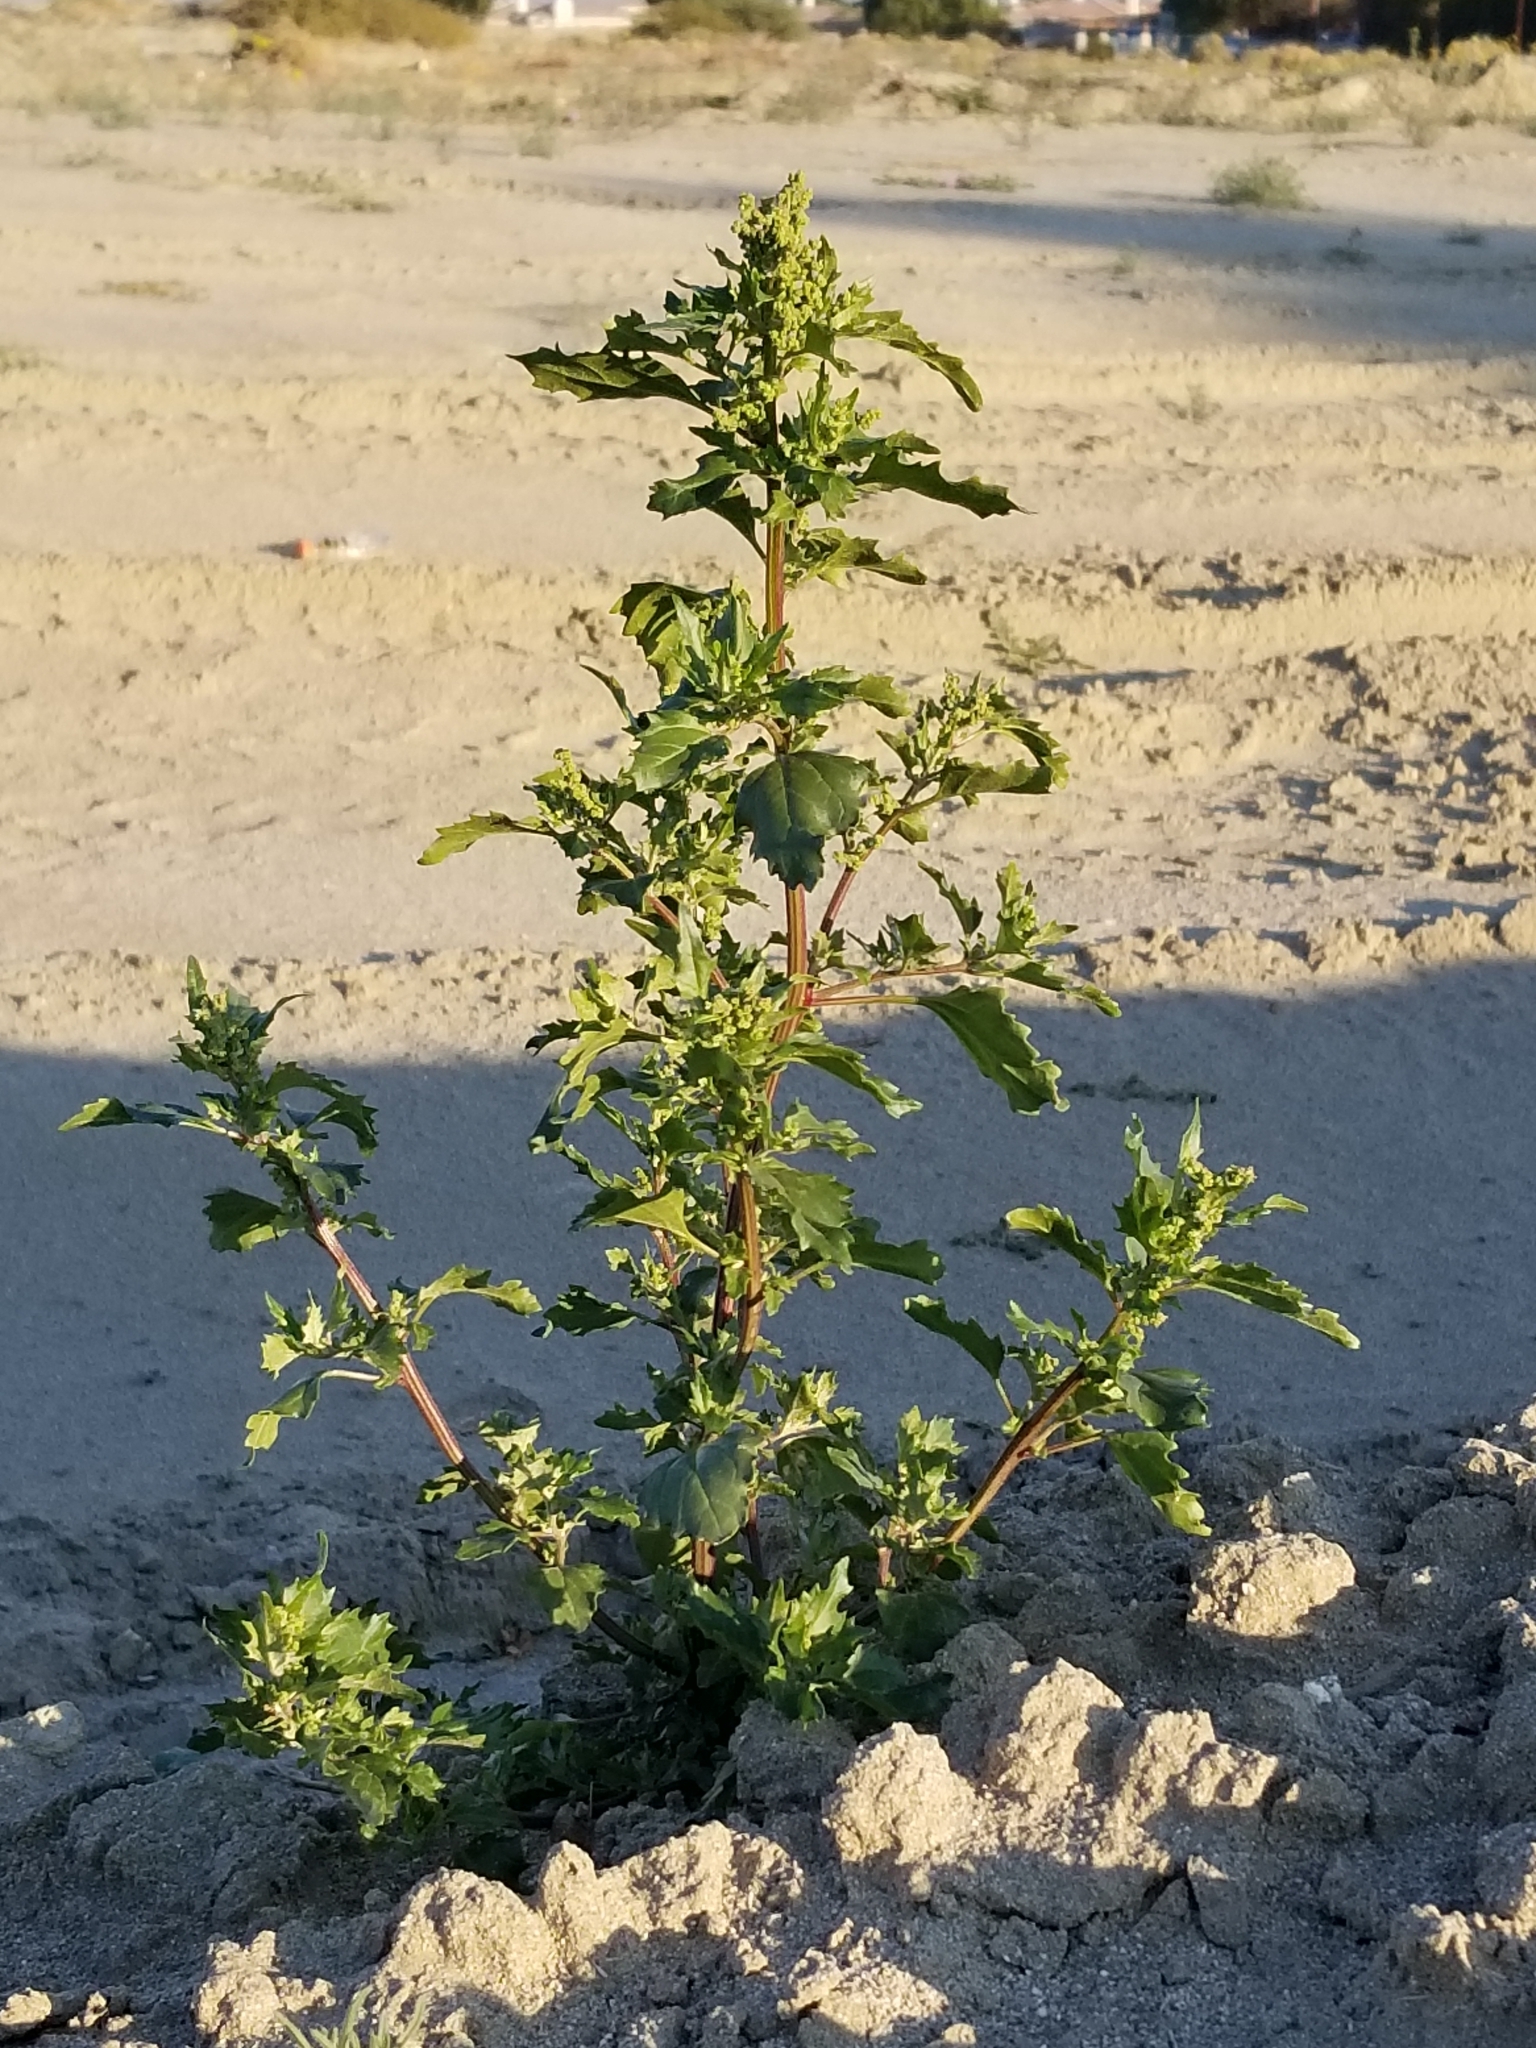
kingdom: Plantae
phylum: Tracheophyta
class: Magnoliopsida
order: Caryophyllales
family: Amaranthaceae
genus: Chenopodiastrum
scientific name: Chenopodiastrum murale
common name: Sowbane
